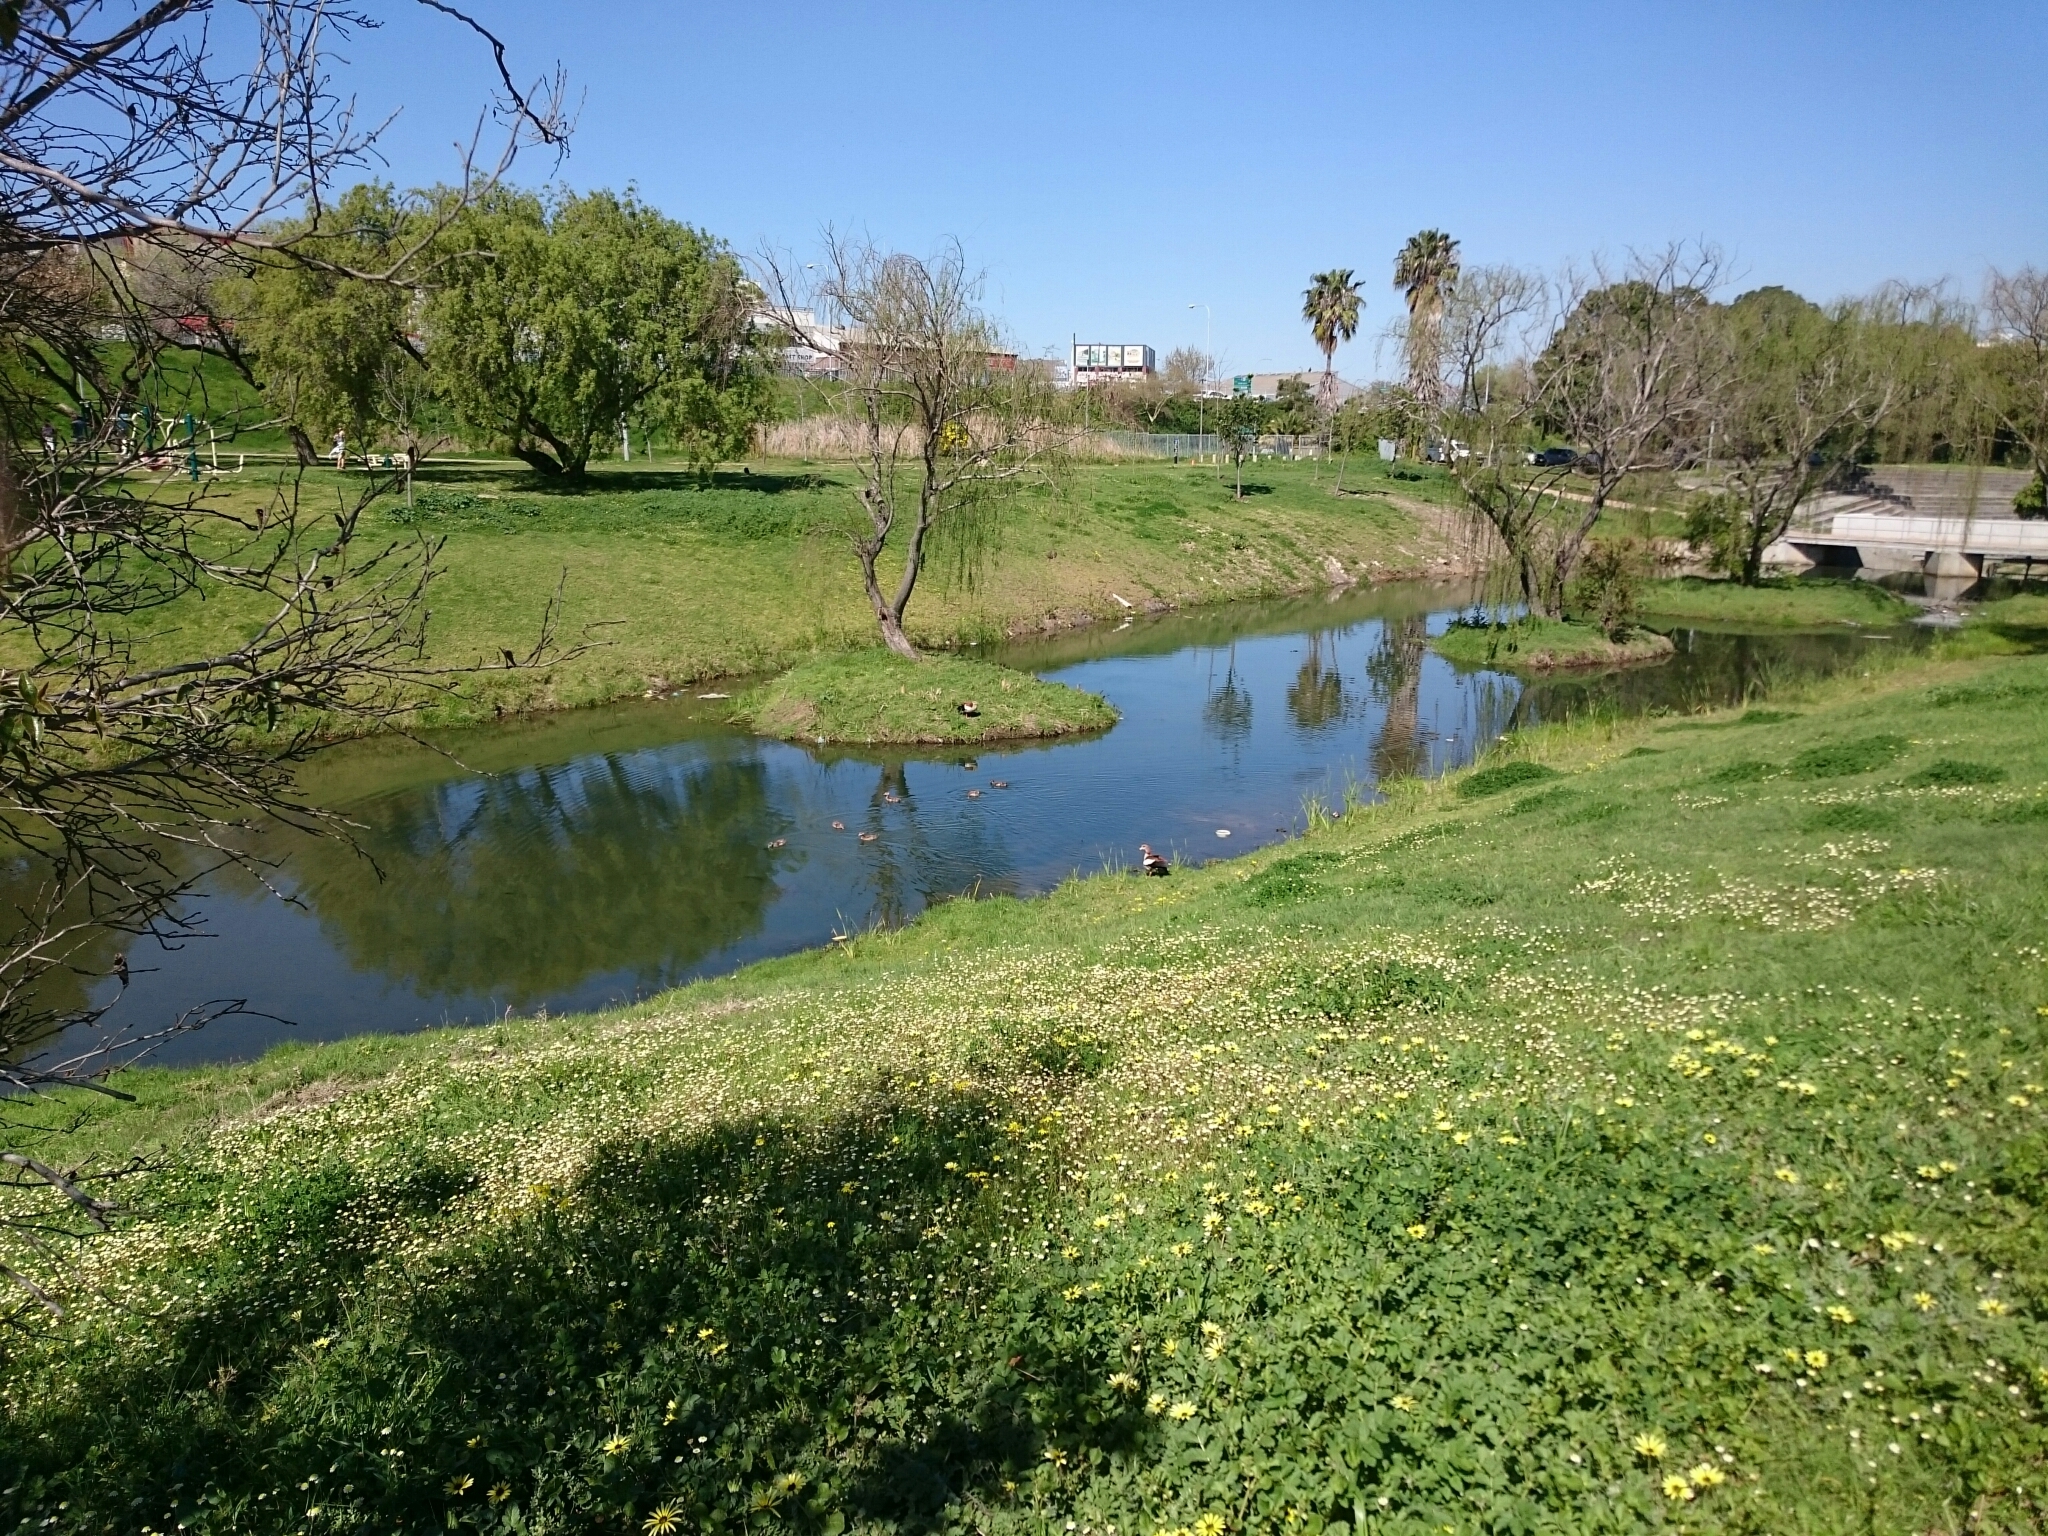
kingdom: Animalia
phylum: Chordata
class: Aves
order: Anseriformes
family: Anatidae
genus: Alopochen
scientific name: Alopochen aegyptiaca
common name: Egyptian goose
